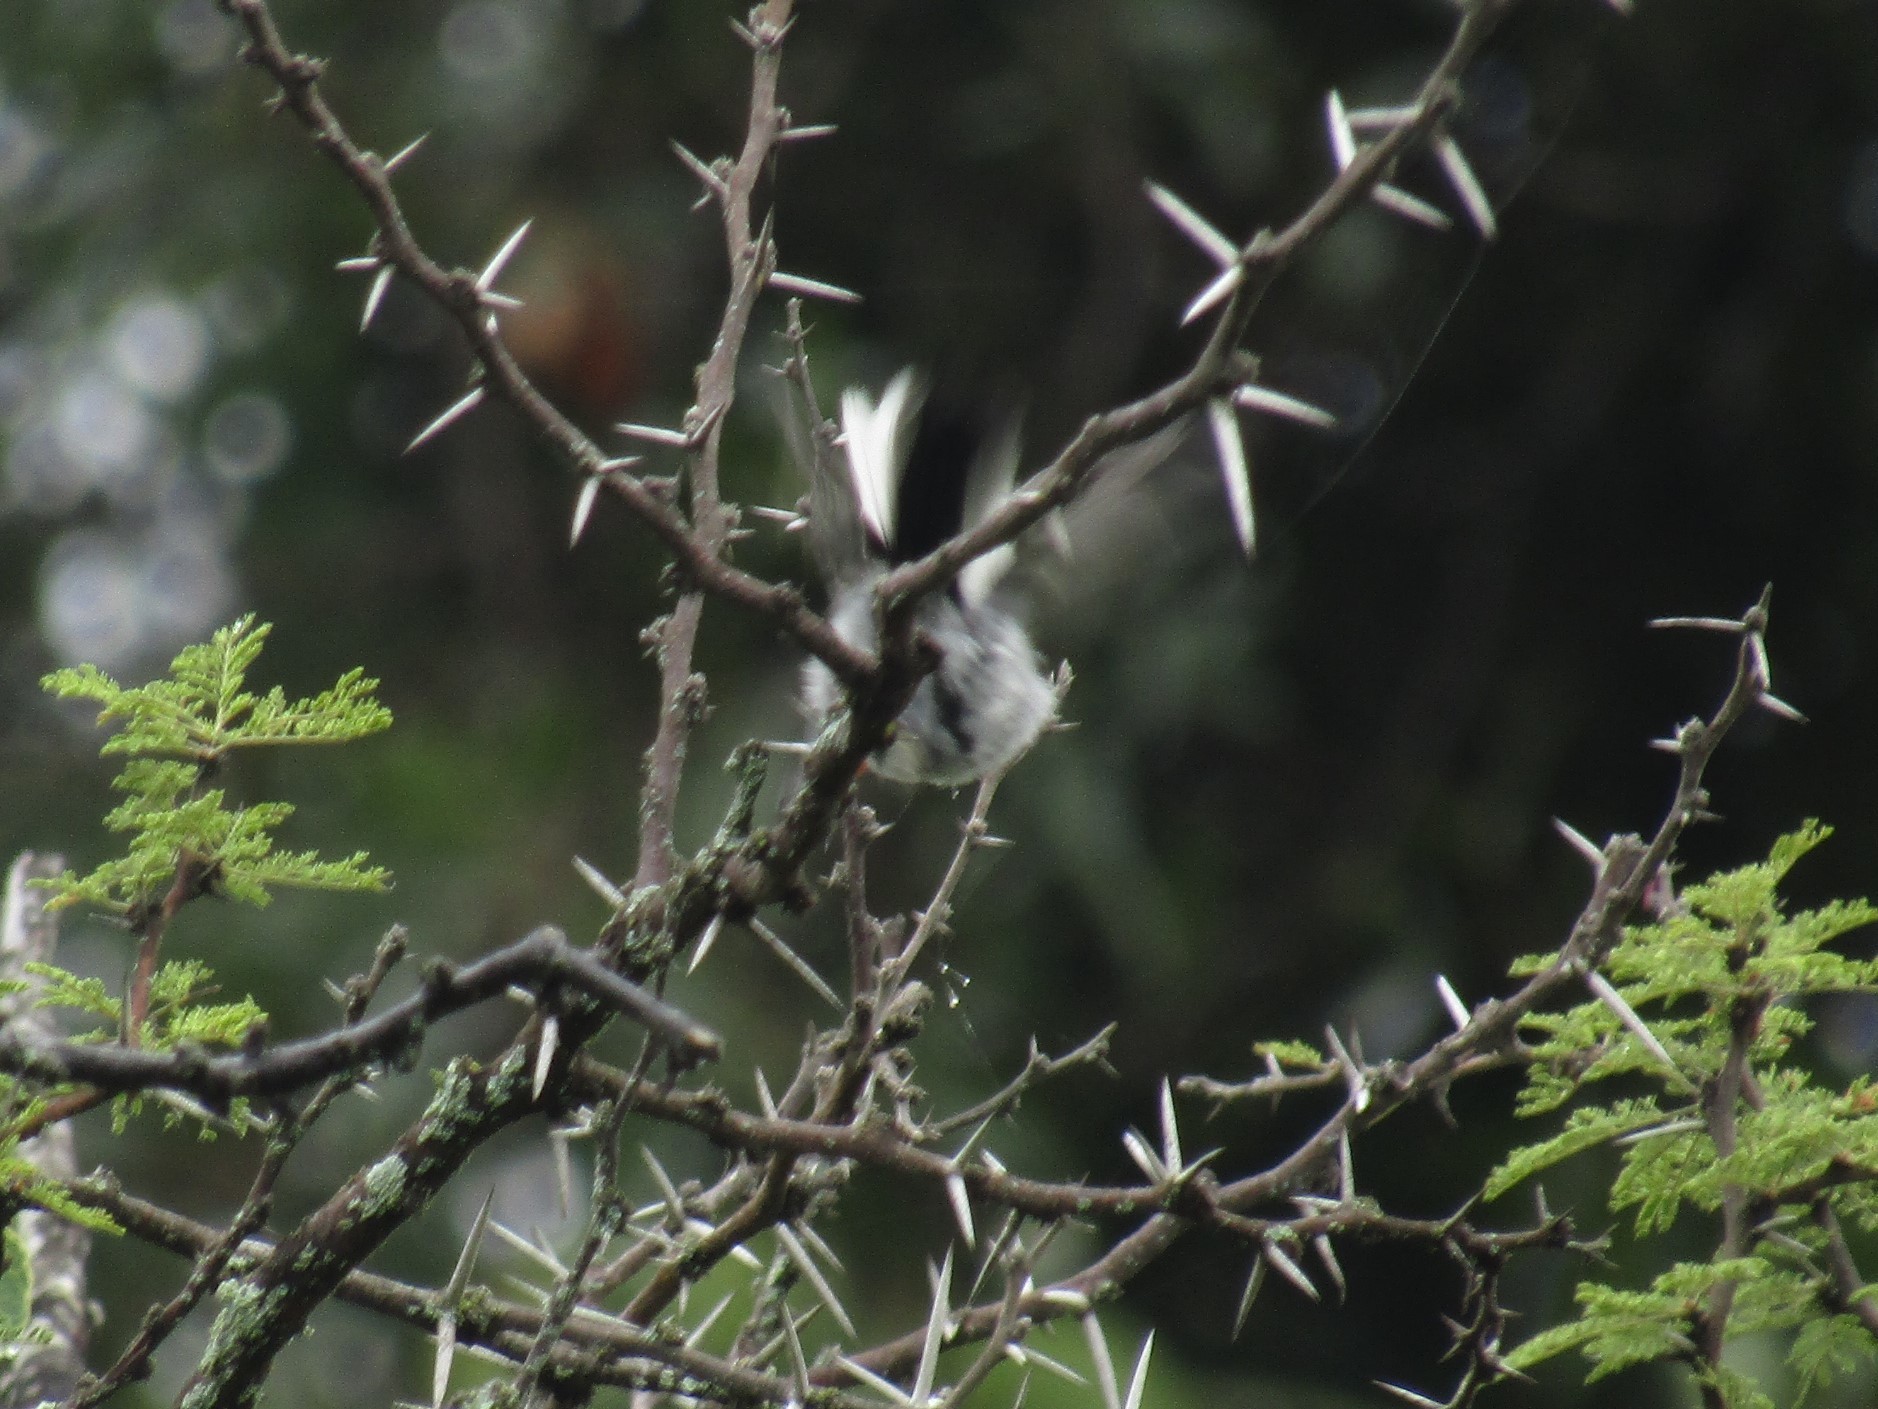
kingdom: Animalia
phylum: Chordata
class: Aves
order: Passeriformes
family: Polioptilidae
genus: Polioptila
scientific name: Polioptila dumicola
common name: Masked gnatcatcher
